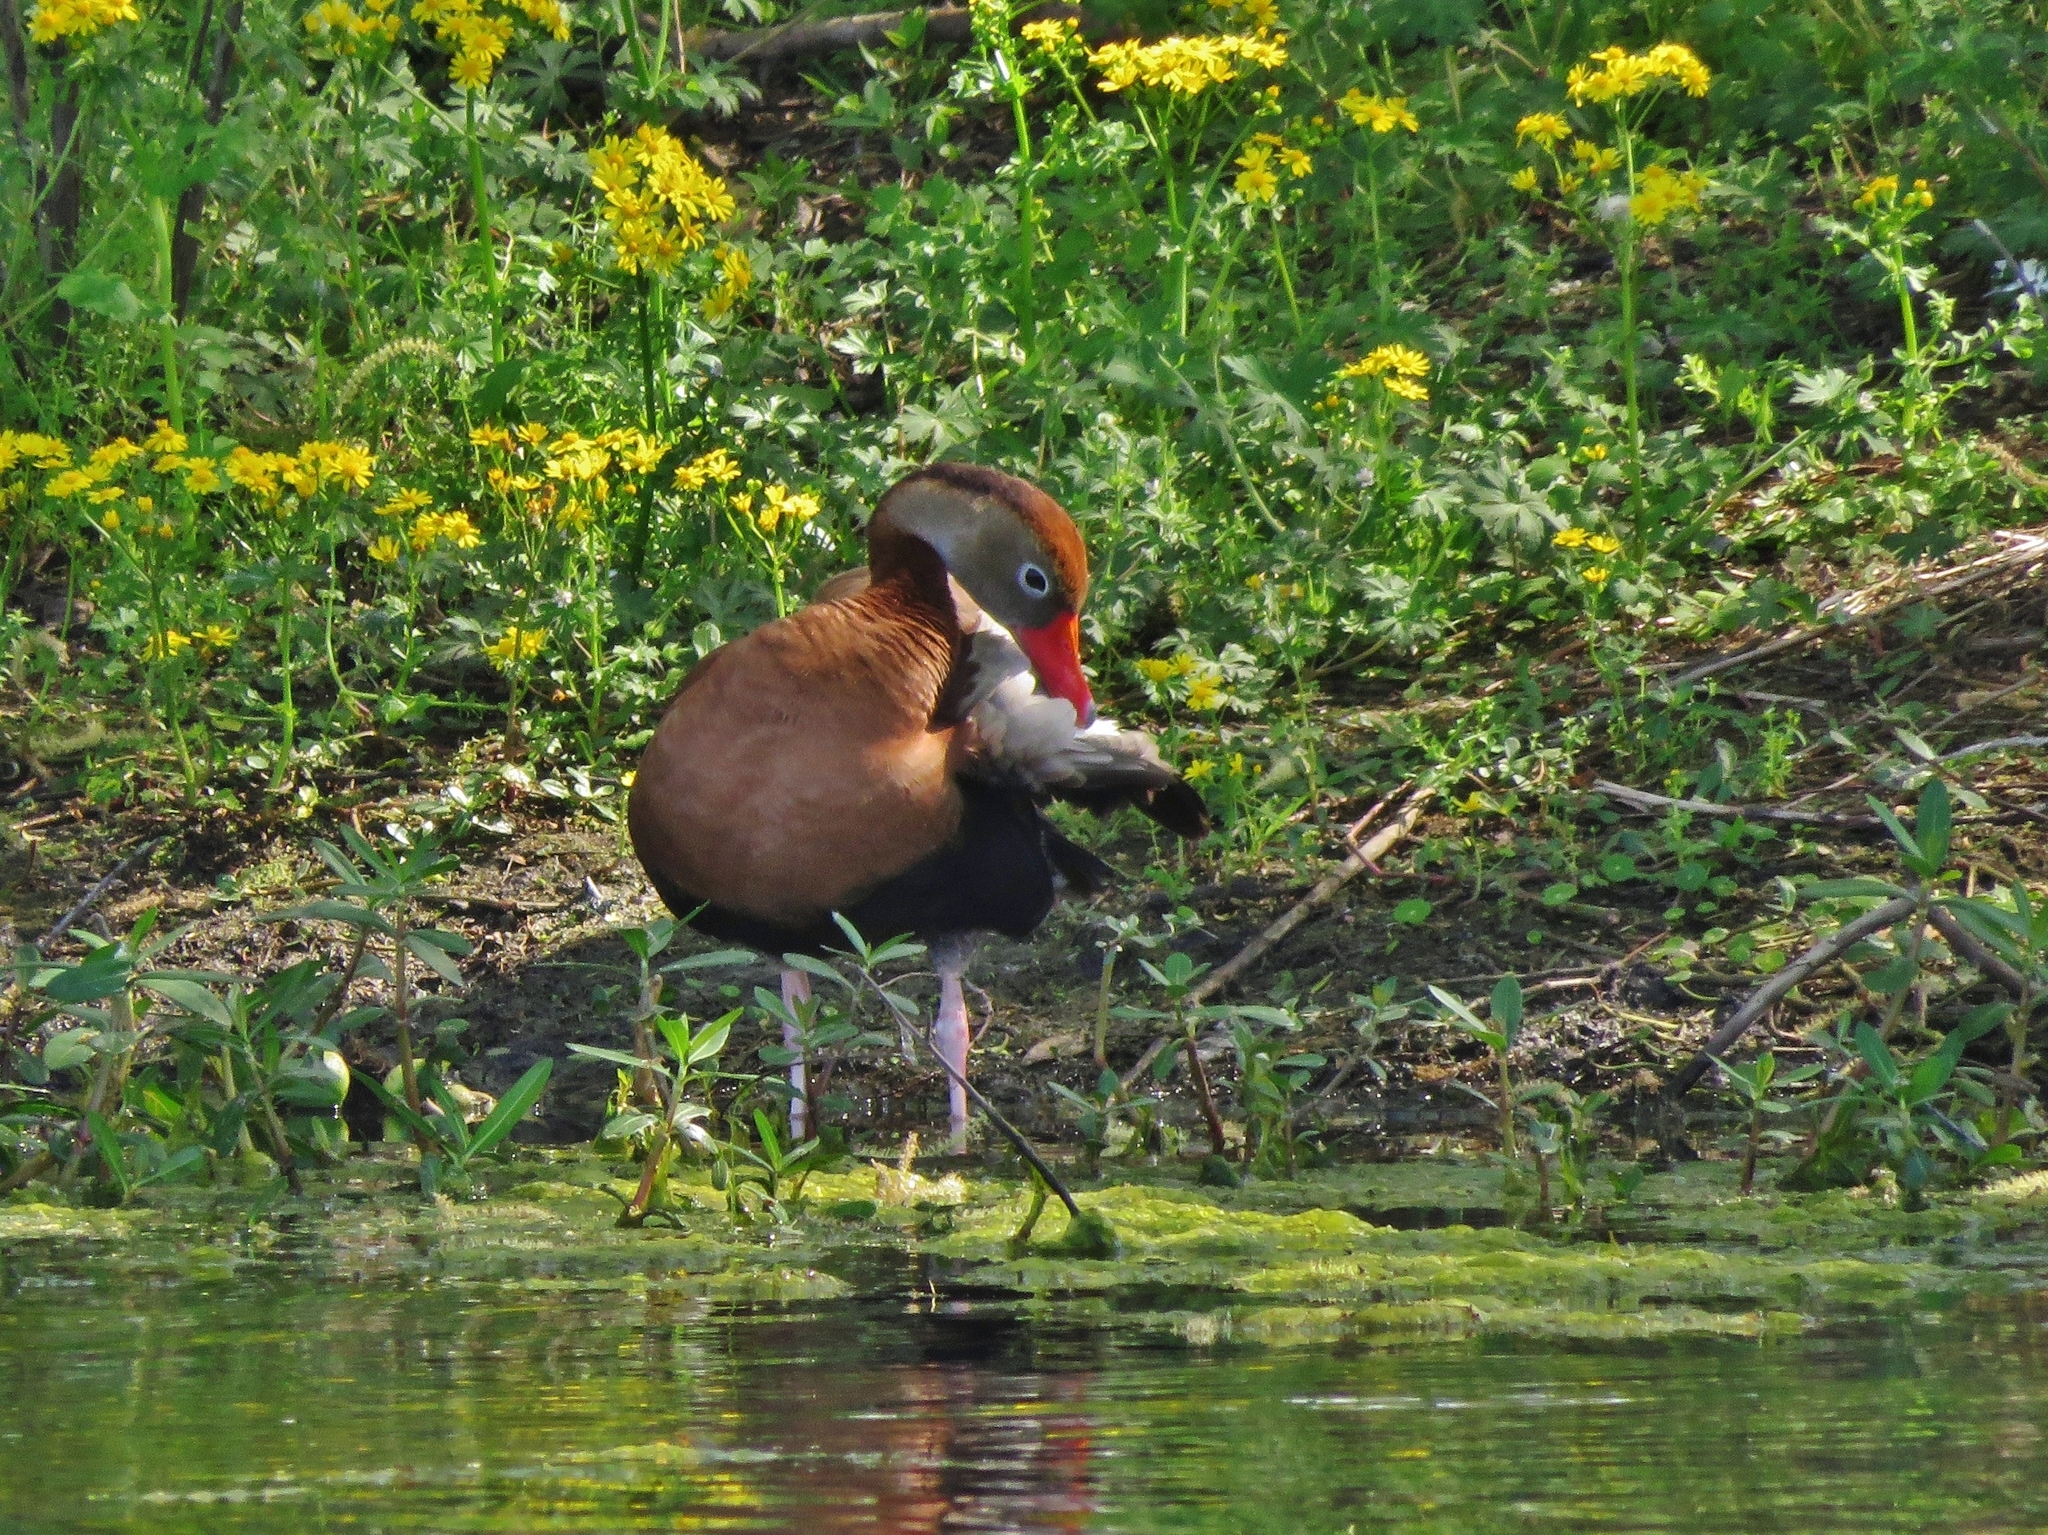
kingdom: Animalia
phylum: Chordata
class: Aves
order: Anseriformes
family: Anatidae
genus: Dendrocygna
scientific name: Dendrocygna autumnalis
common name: Black-bellied whistling duck
